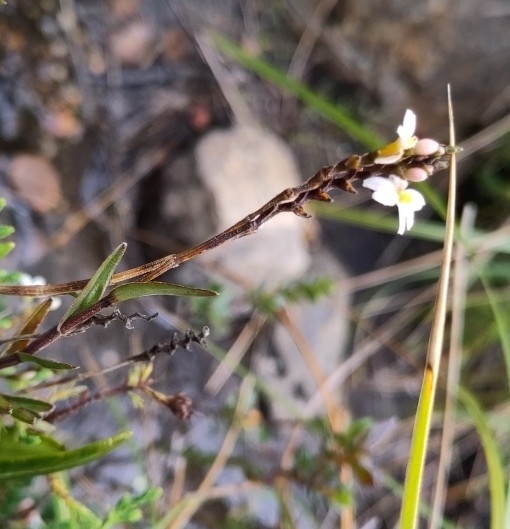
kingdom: Plantae
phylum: Tracheophyta
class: Liliopsida
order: Asparagales
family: Orchidaceae
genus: Epidendrum
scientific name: Epidendrum fimbriatum
